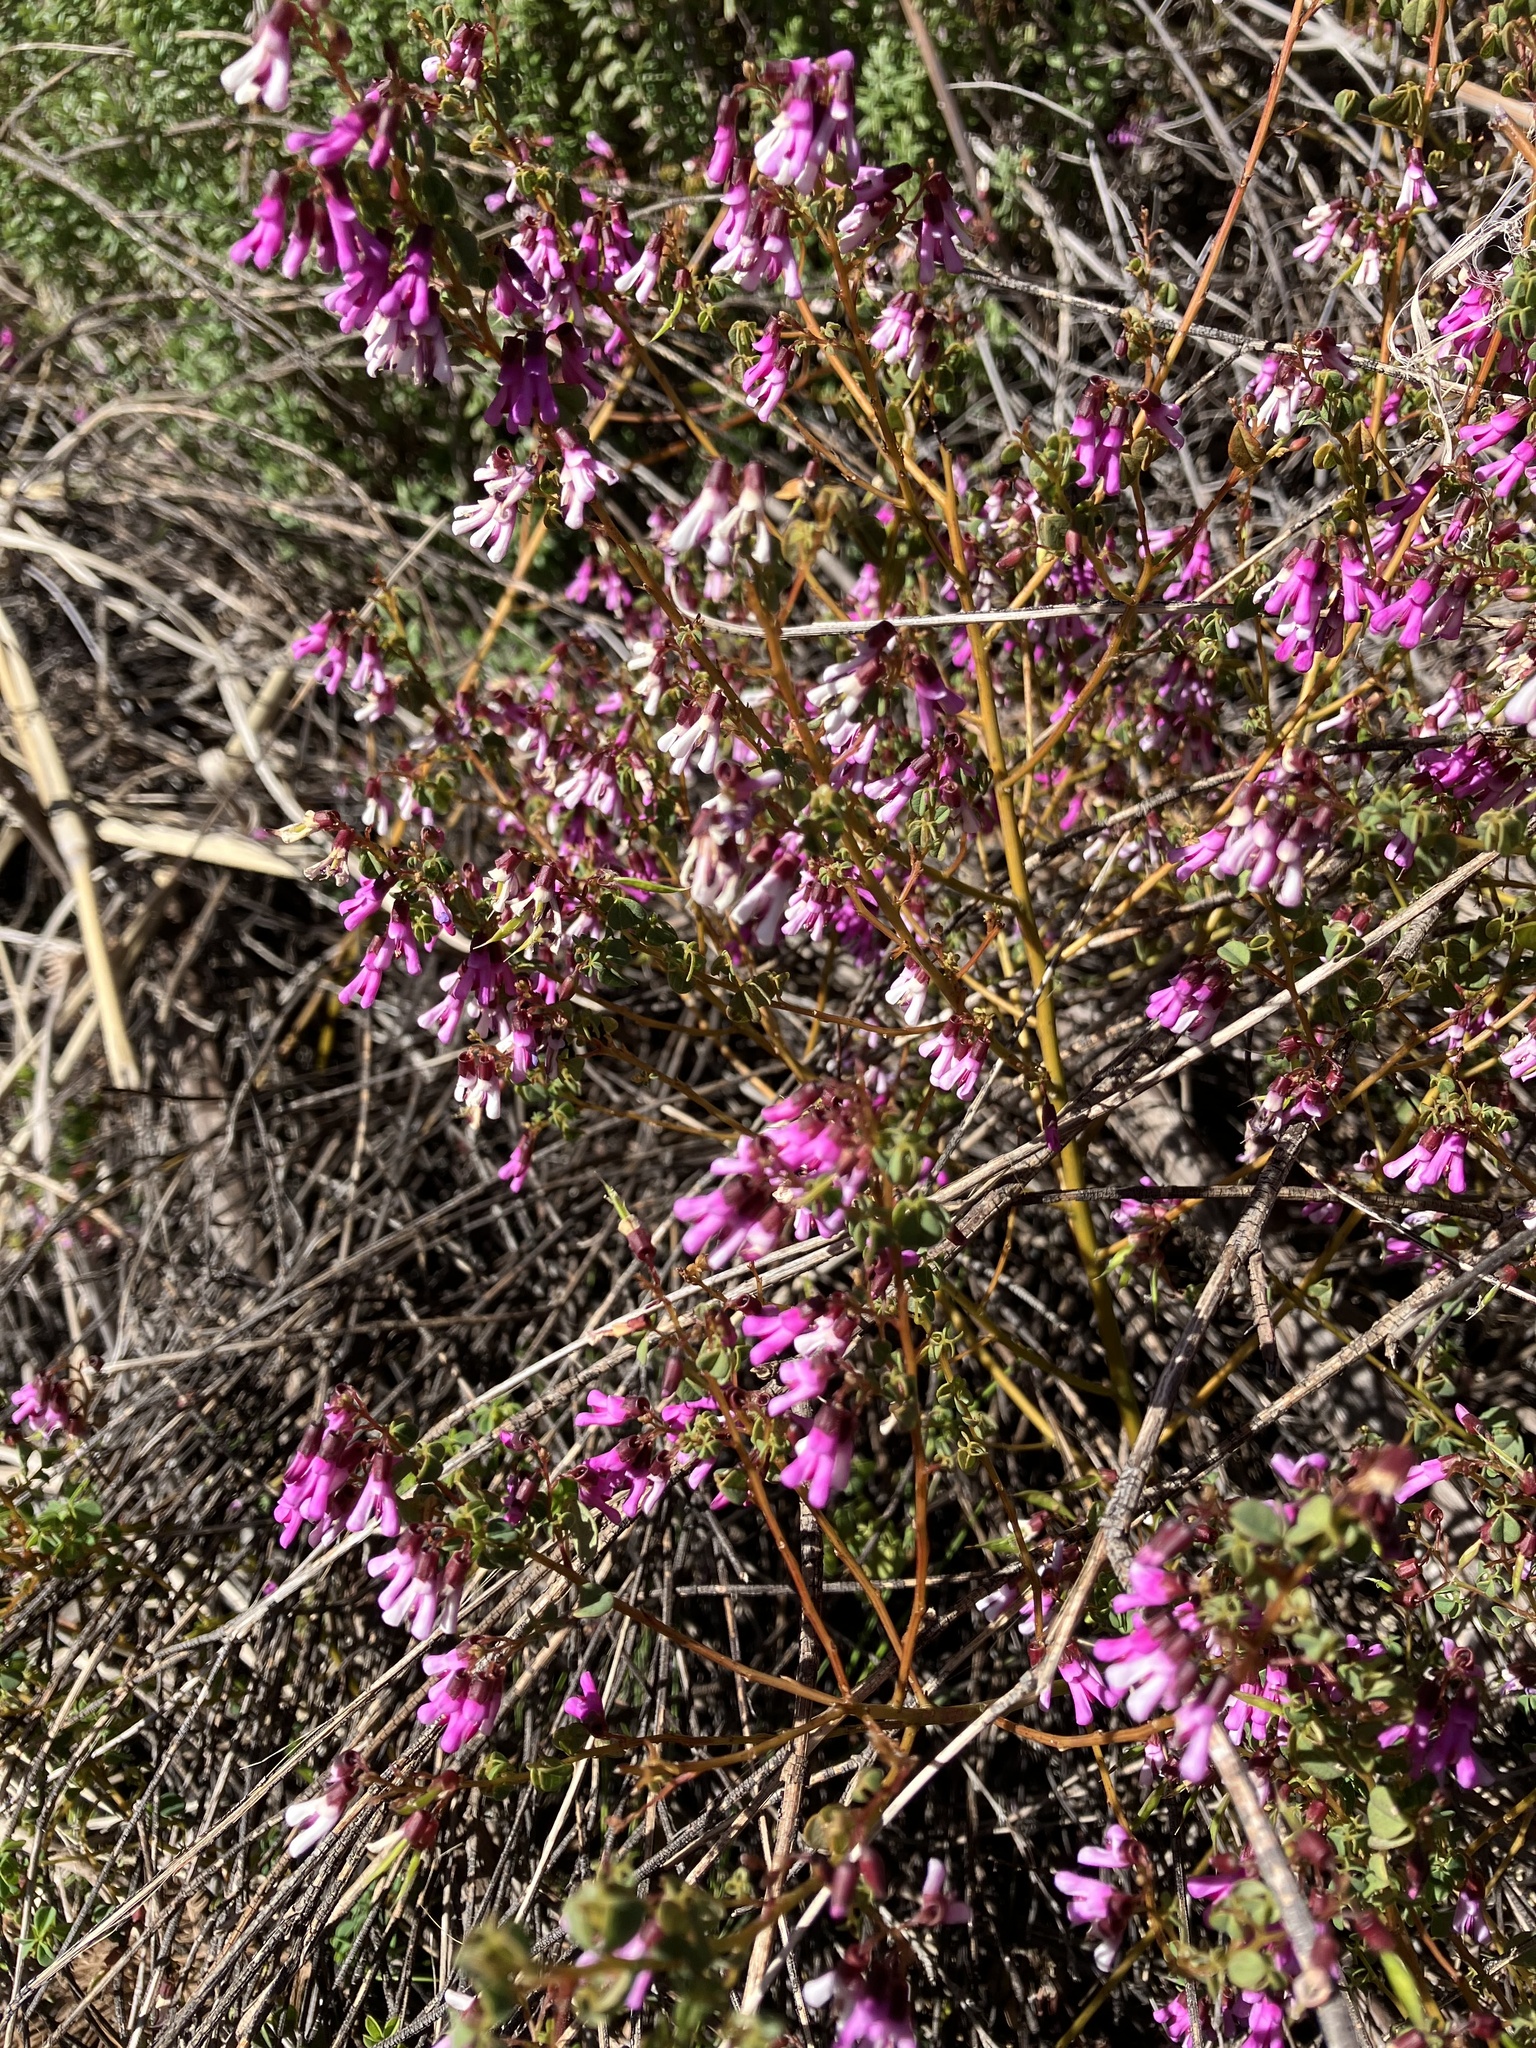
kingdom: Plantae
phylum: Tracheophyta
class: Magnoliopsida
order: Fabales
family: Fabaceae
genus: Hypocalyptus
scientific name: Hypocalyptus oxalidifolius
